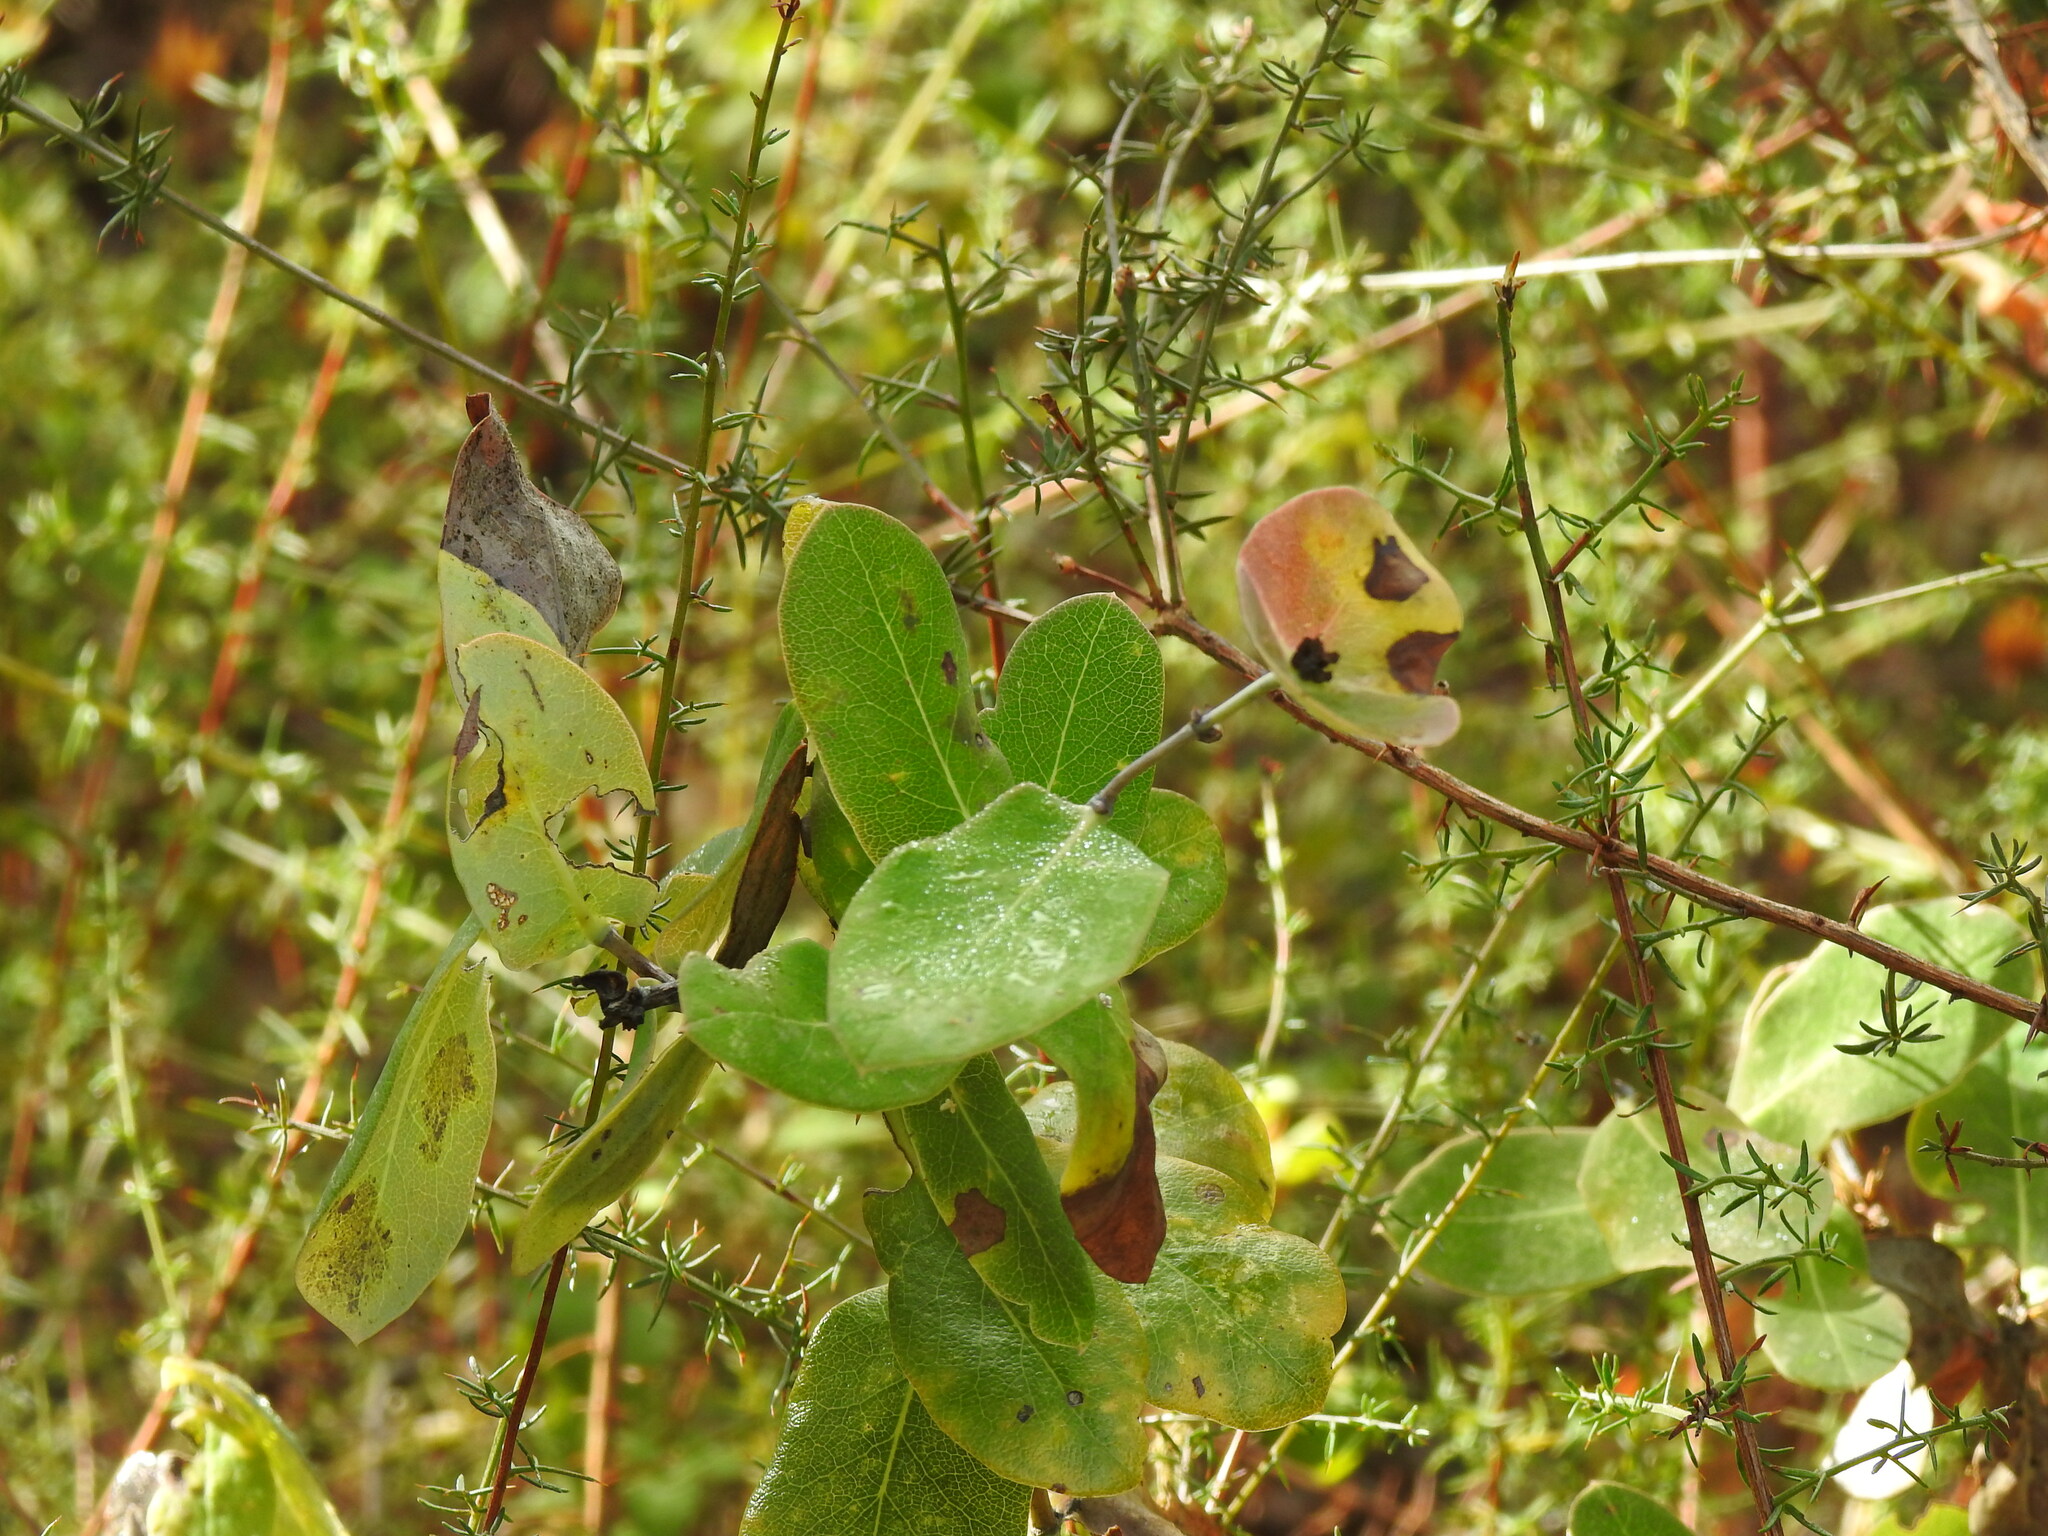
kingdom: Plantae
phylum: Tracheophyta
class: Magnoliopsida
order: Dipsacales
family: Caprifoliaceae
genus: Lonicera
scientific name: Lonicera implexa
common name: Minorca honeysuckle
